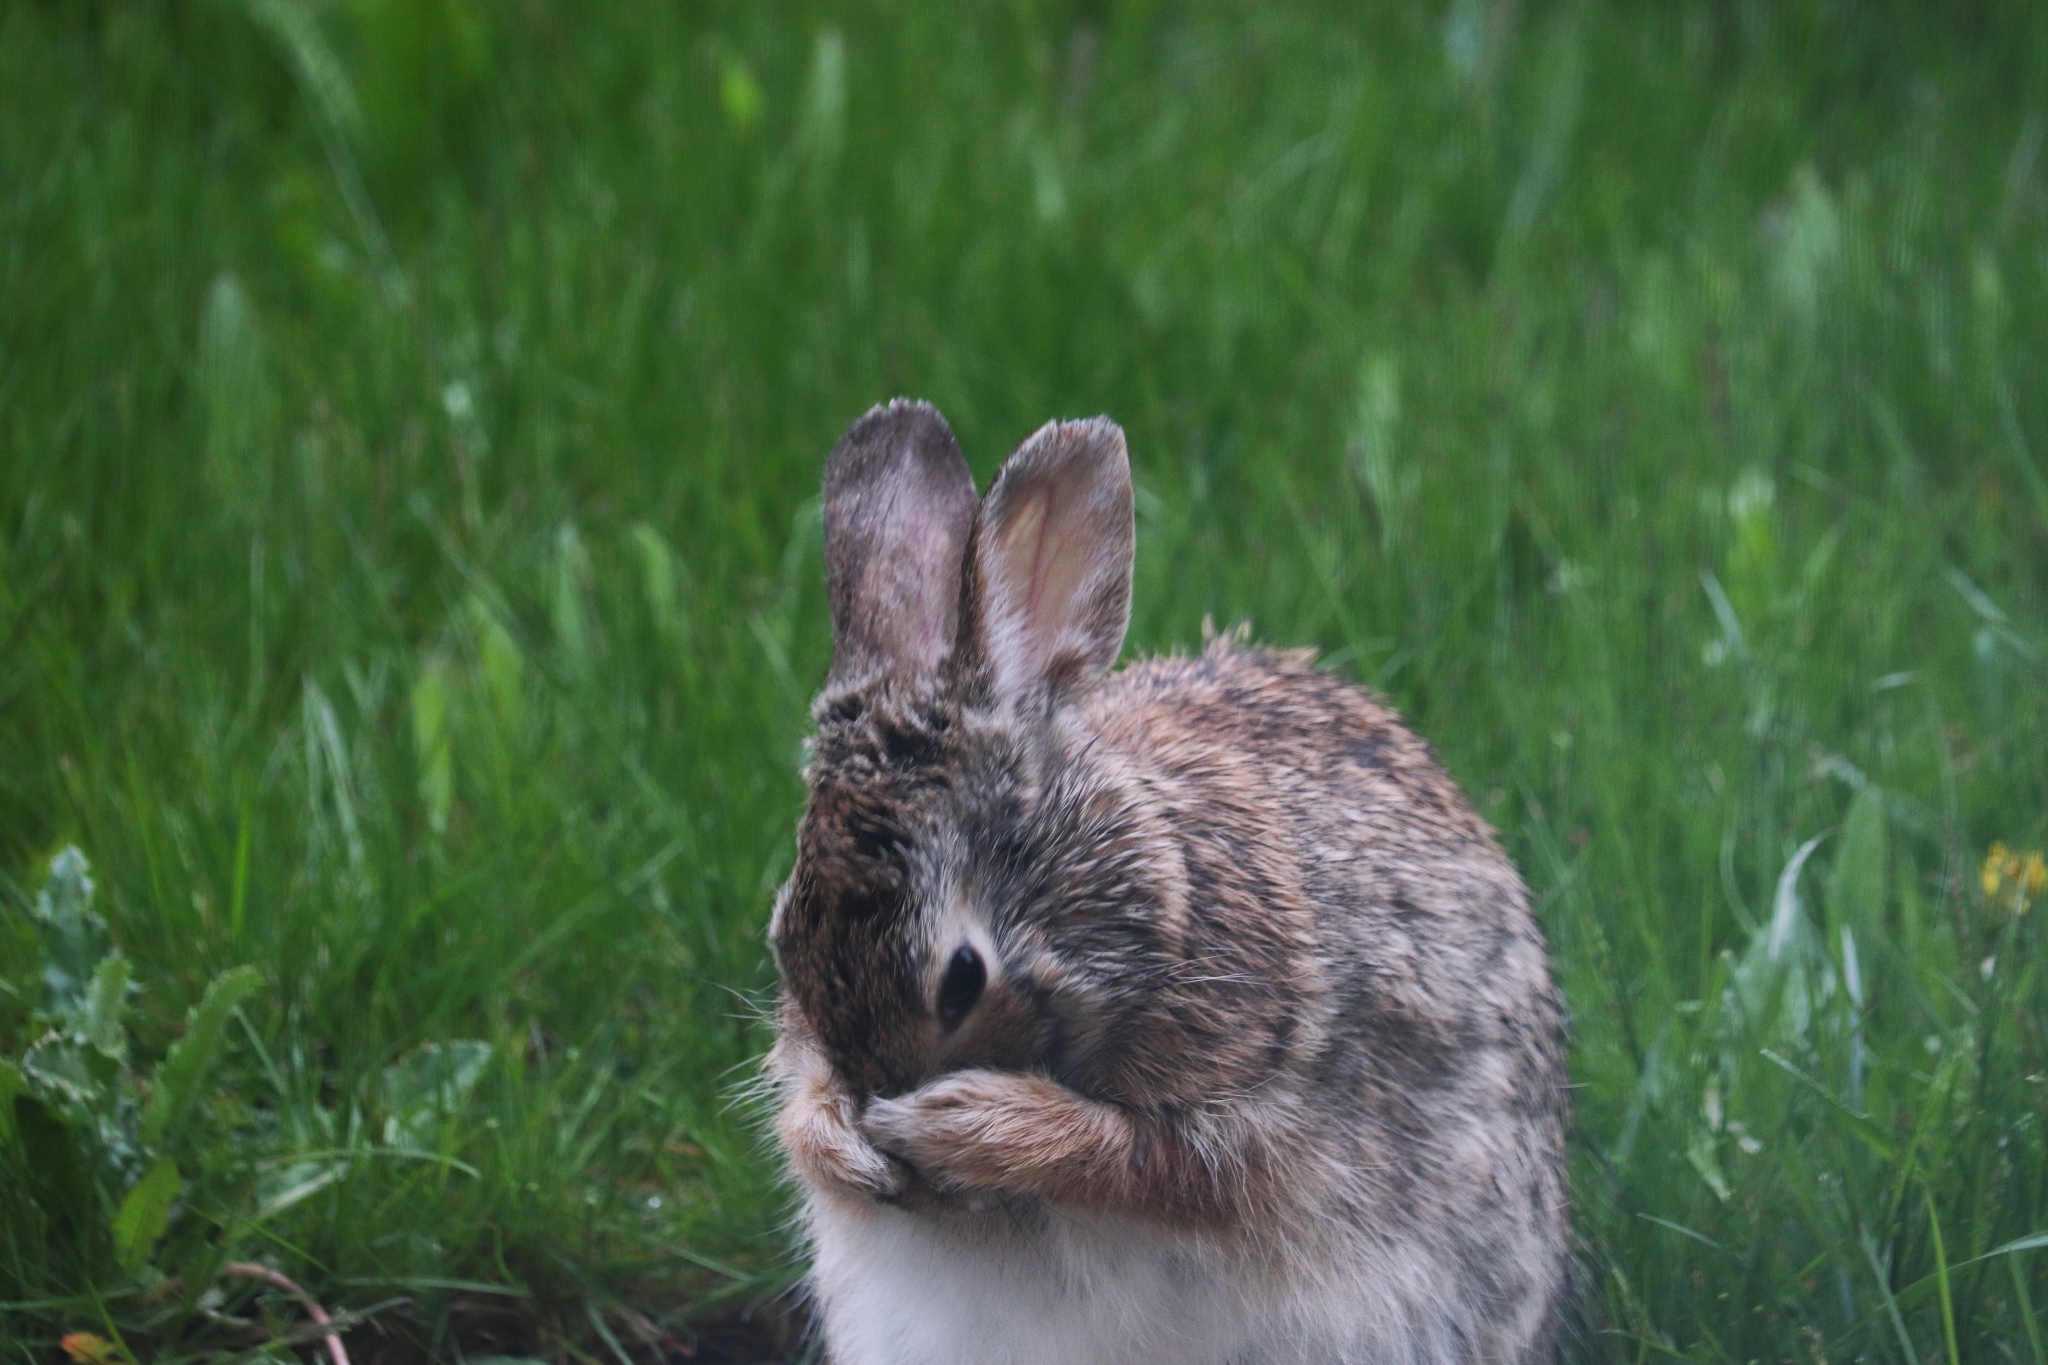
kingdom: Animalia
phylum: Chordata
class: Mammalia
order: Lagomorpha
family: Leporidae
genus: Sylvilagus
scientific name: Sylvilagus floridanus
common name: Eastern cottontail
